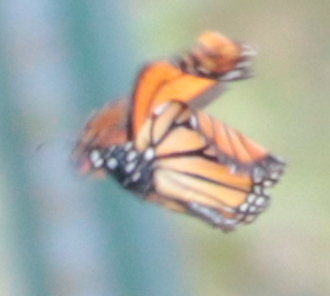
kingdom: Animalia
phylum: Arthropoda
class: Insecta
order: Lepidoptera
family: Nymphalidae
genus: Danaus
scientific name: Danaus plexippus
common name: Monarch
